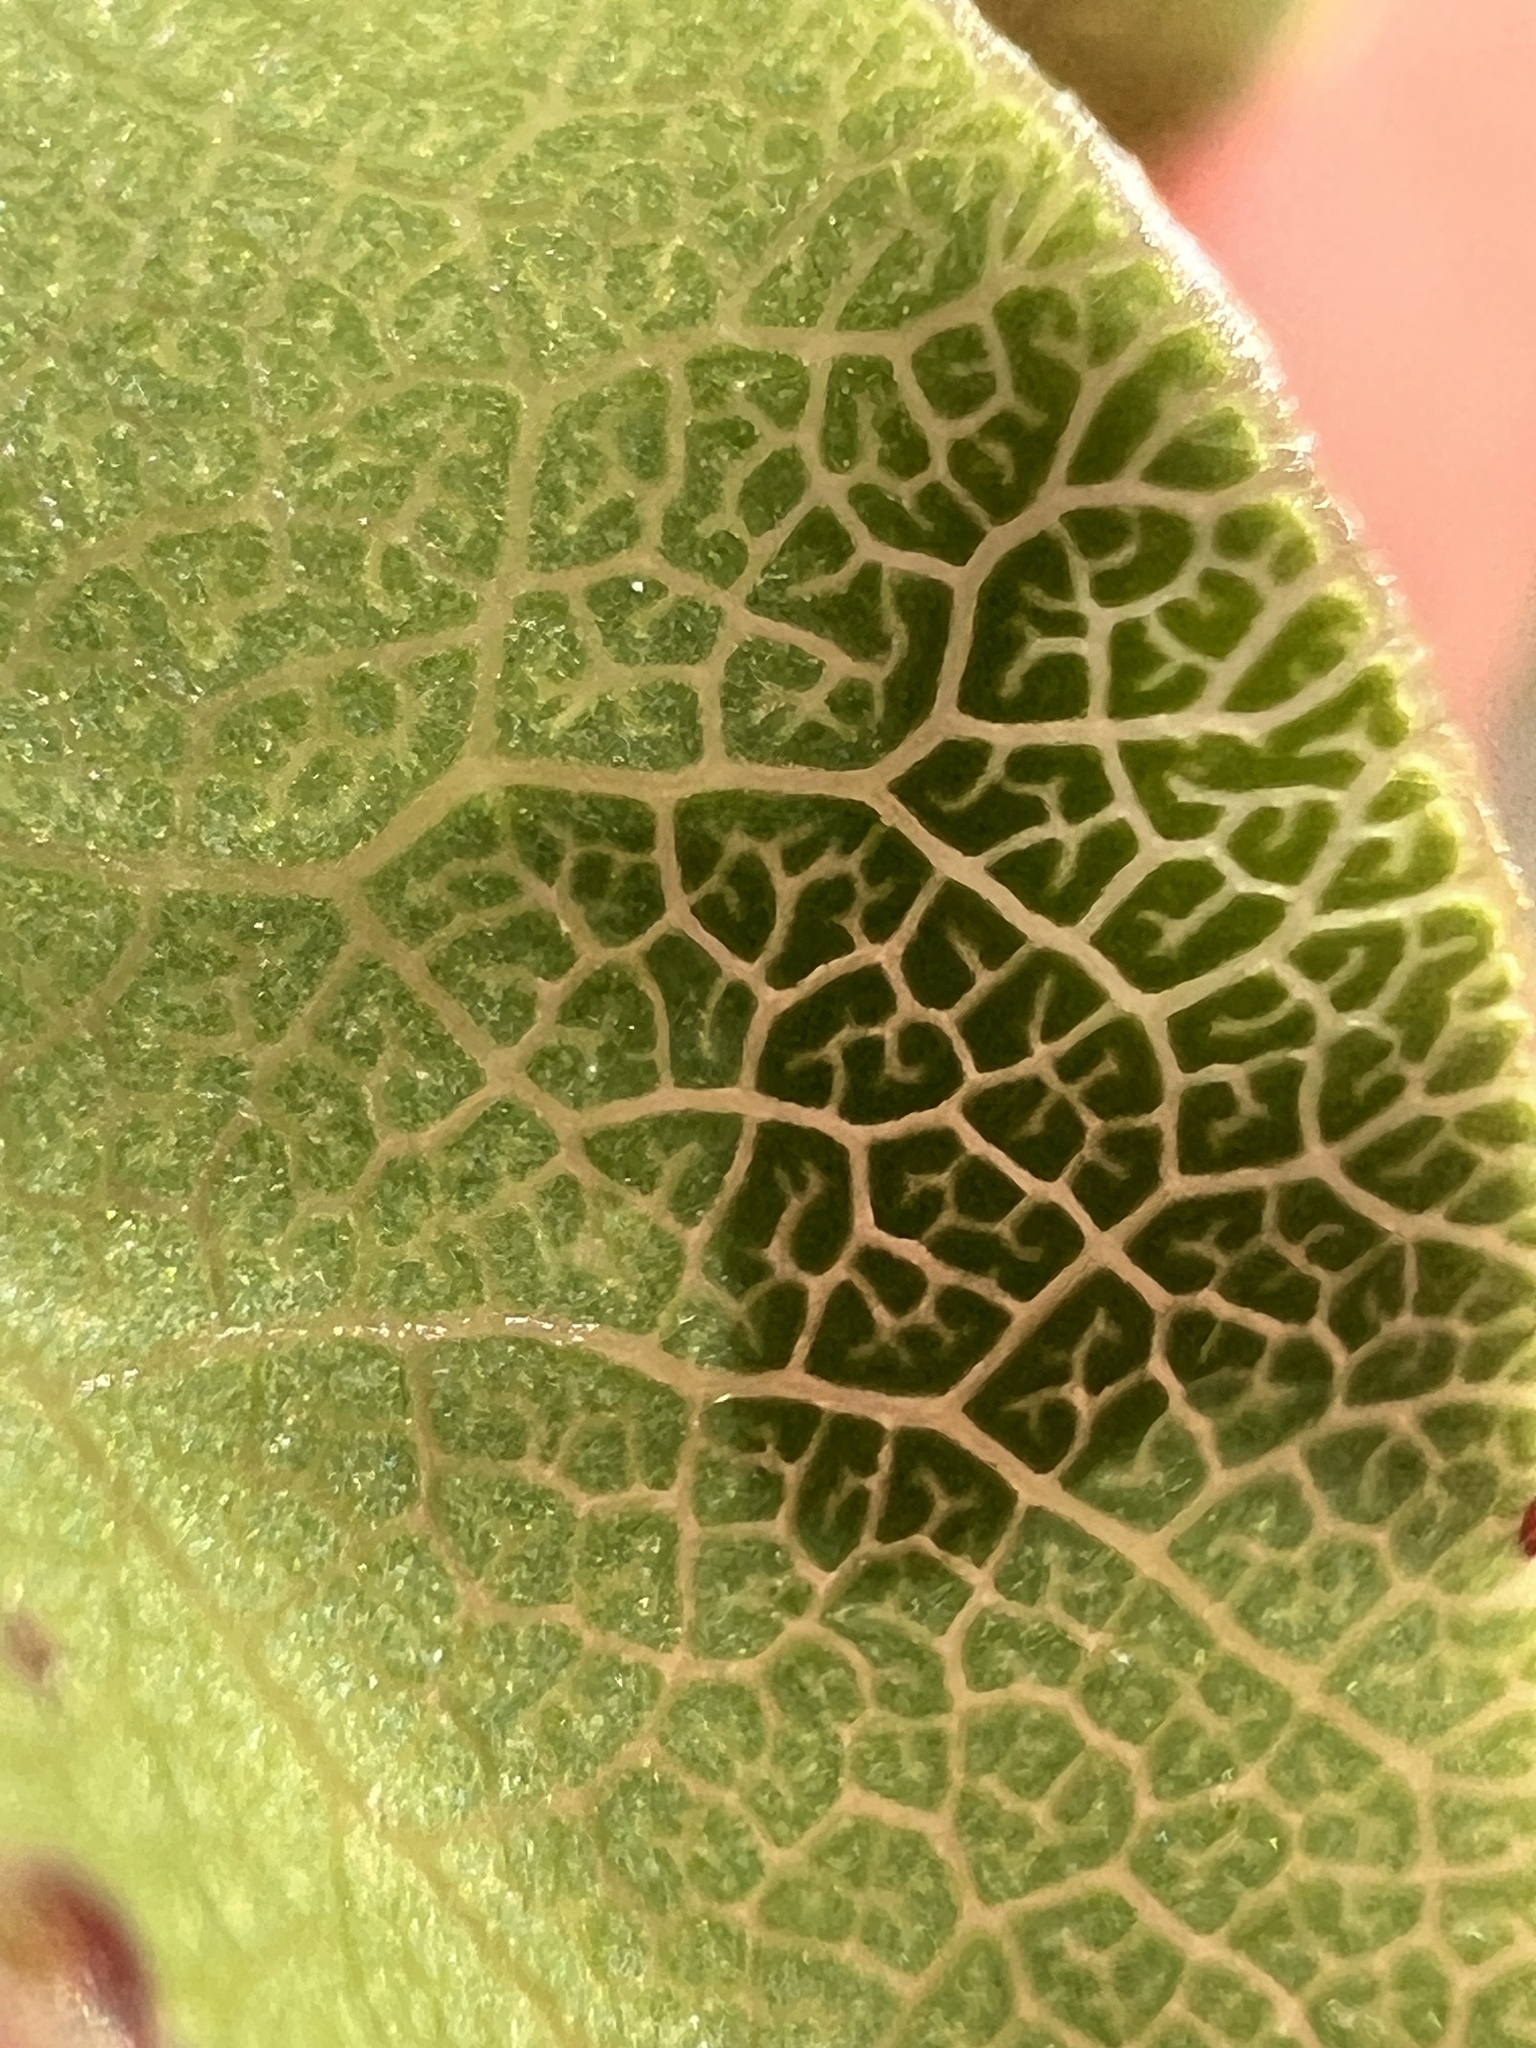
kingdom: Plantae
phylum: Tracheophyta
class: Magnoliopsida
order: Apiales
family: Pittosporaceae
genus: Pittosporum
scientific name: Pittosporum tenuifolium
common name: Kohuhu
